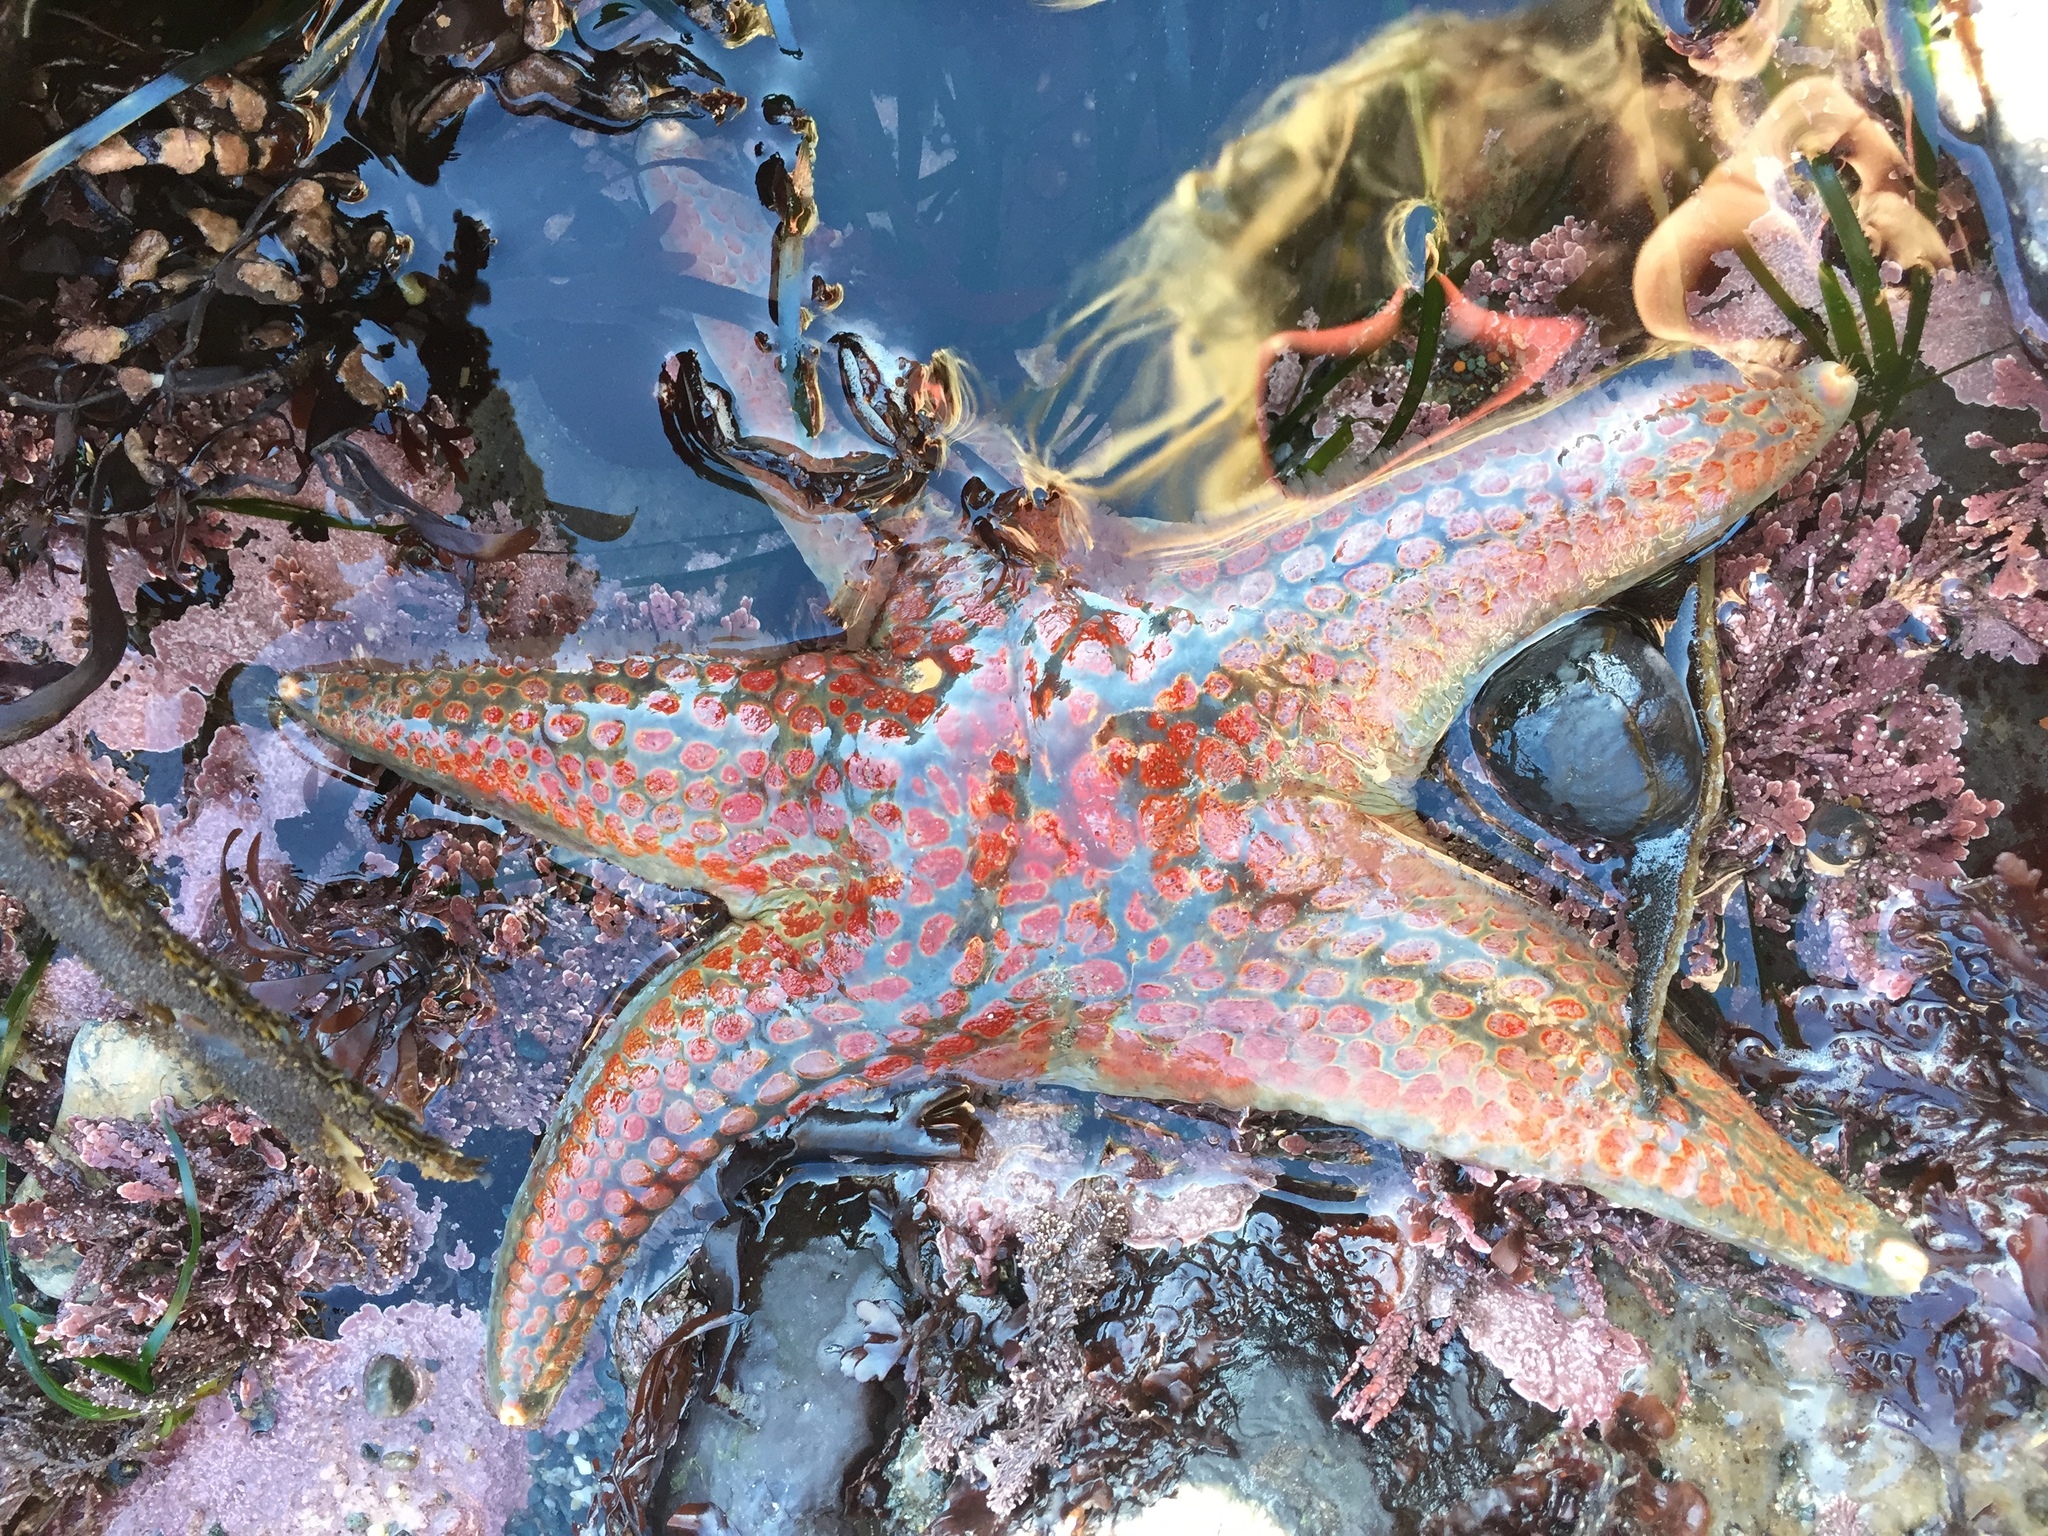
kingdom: Animalia
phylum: Echinodermata
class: Asteroidea
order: Valvatida
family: Asteropseidae
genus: Dermasterias
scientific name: Dermasterias imbricata
